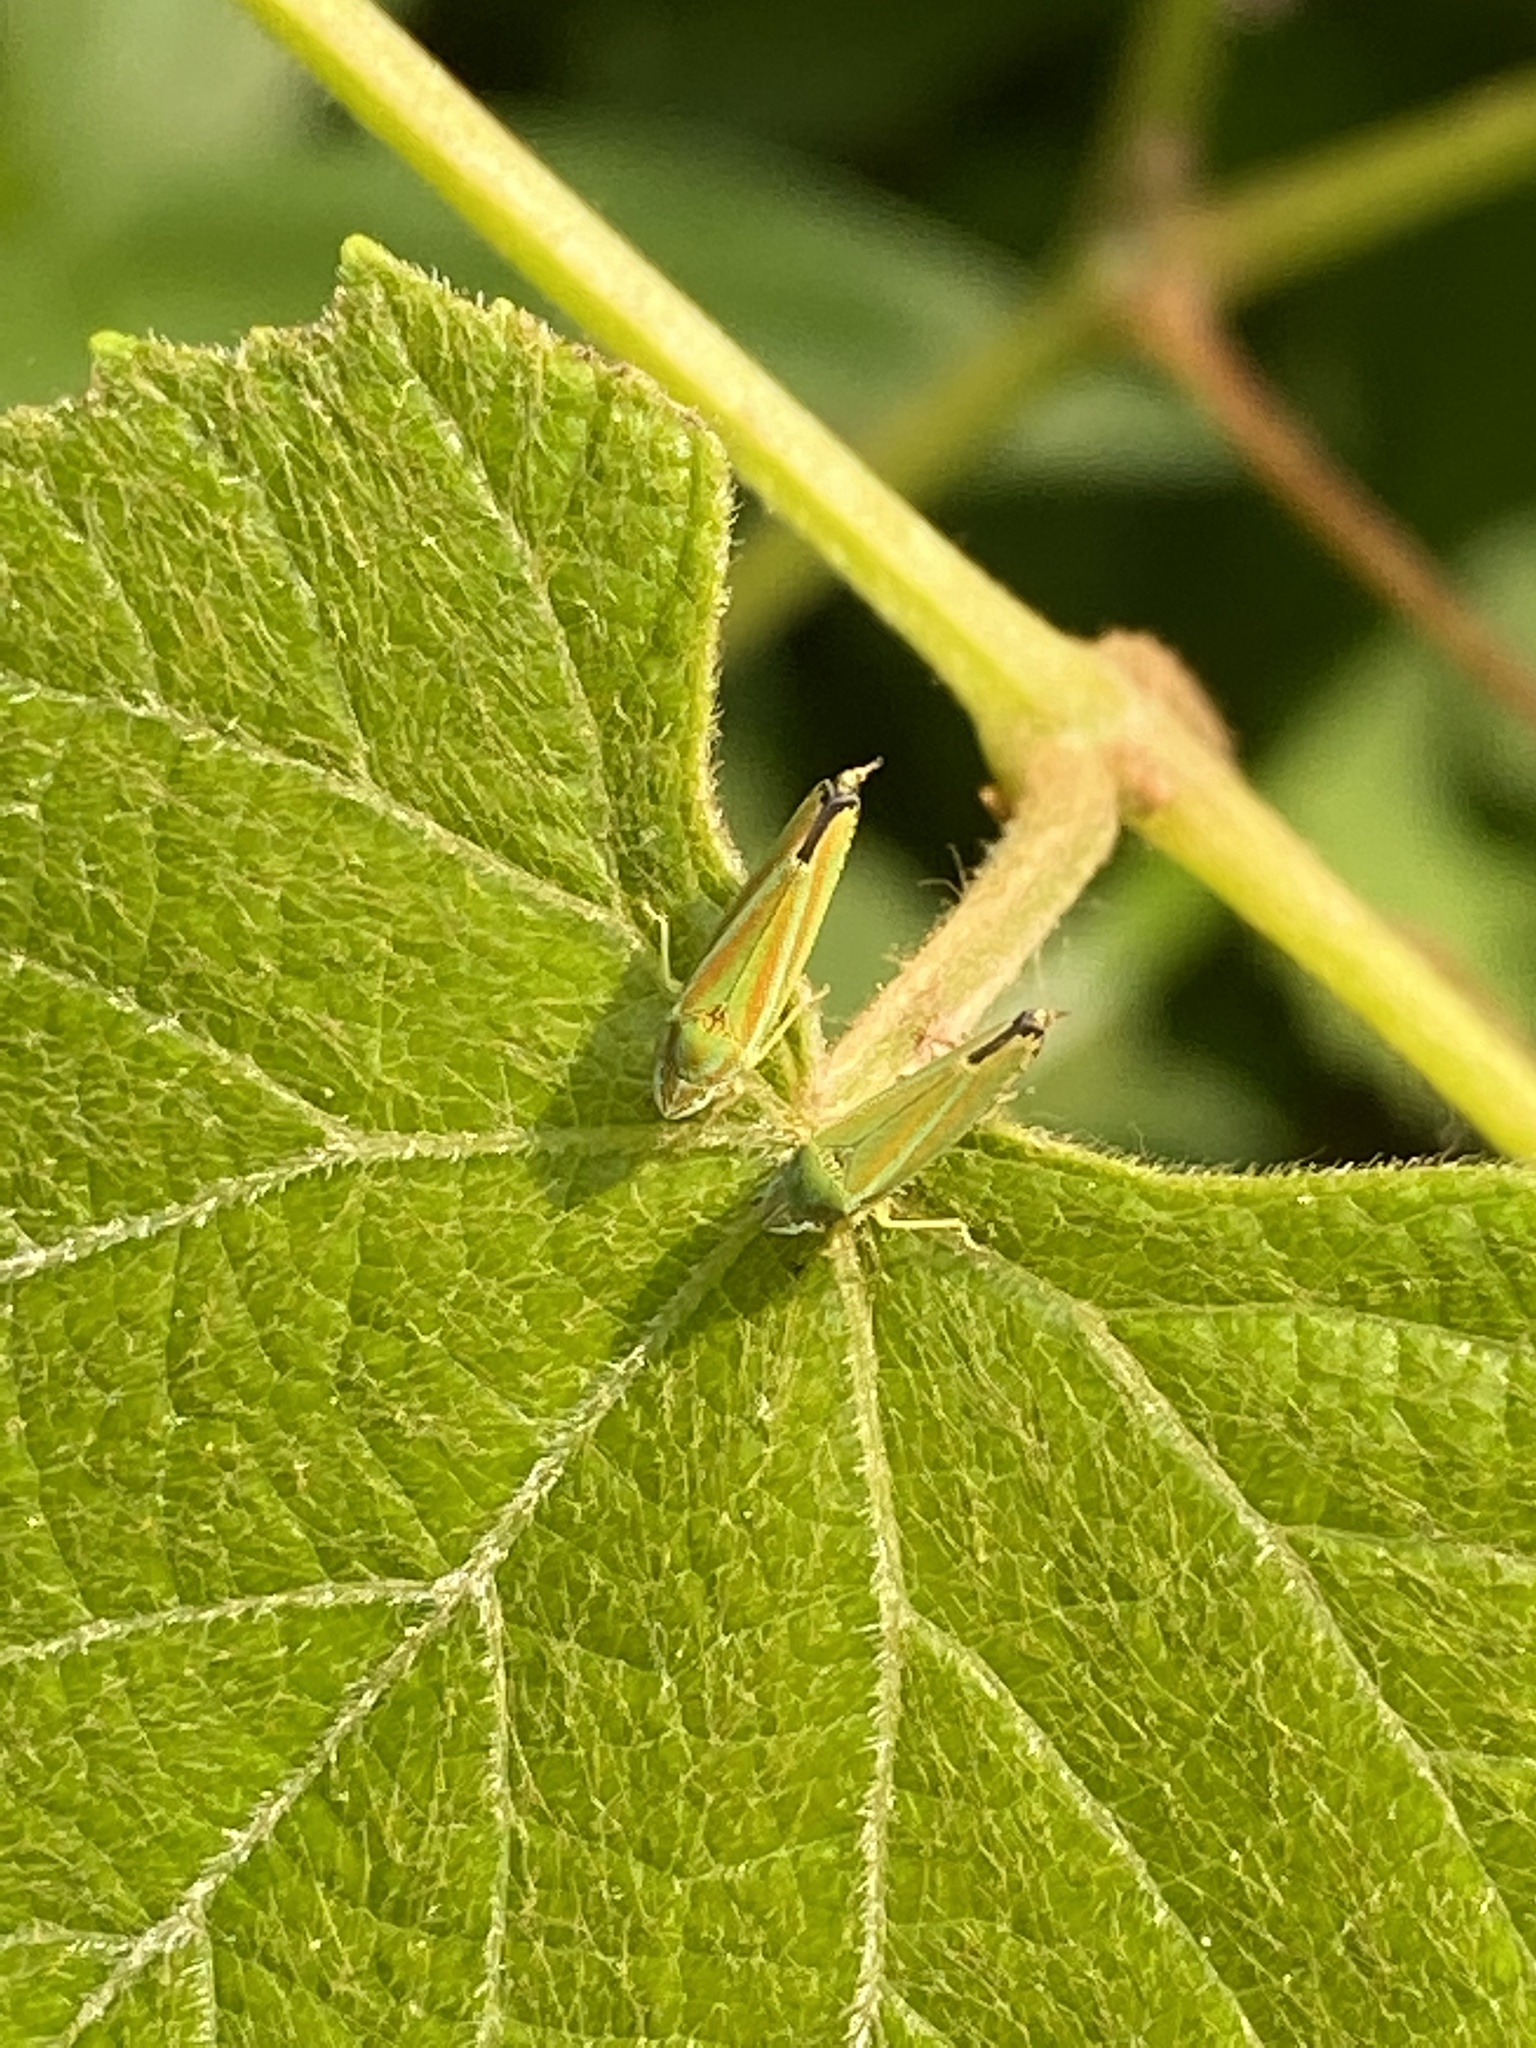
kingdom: Animalia
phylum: Arthropoda
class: Insecta
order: Hemiptera
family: Cicadellidae
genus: Graphocephala
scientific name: Graphocephala versuta
